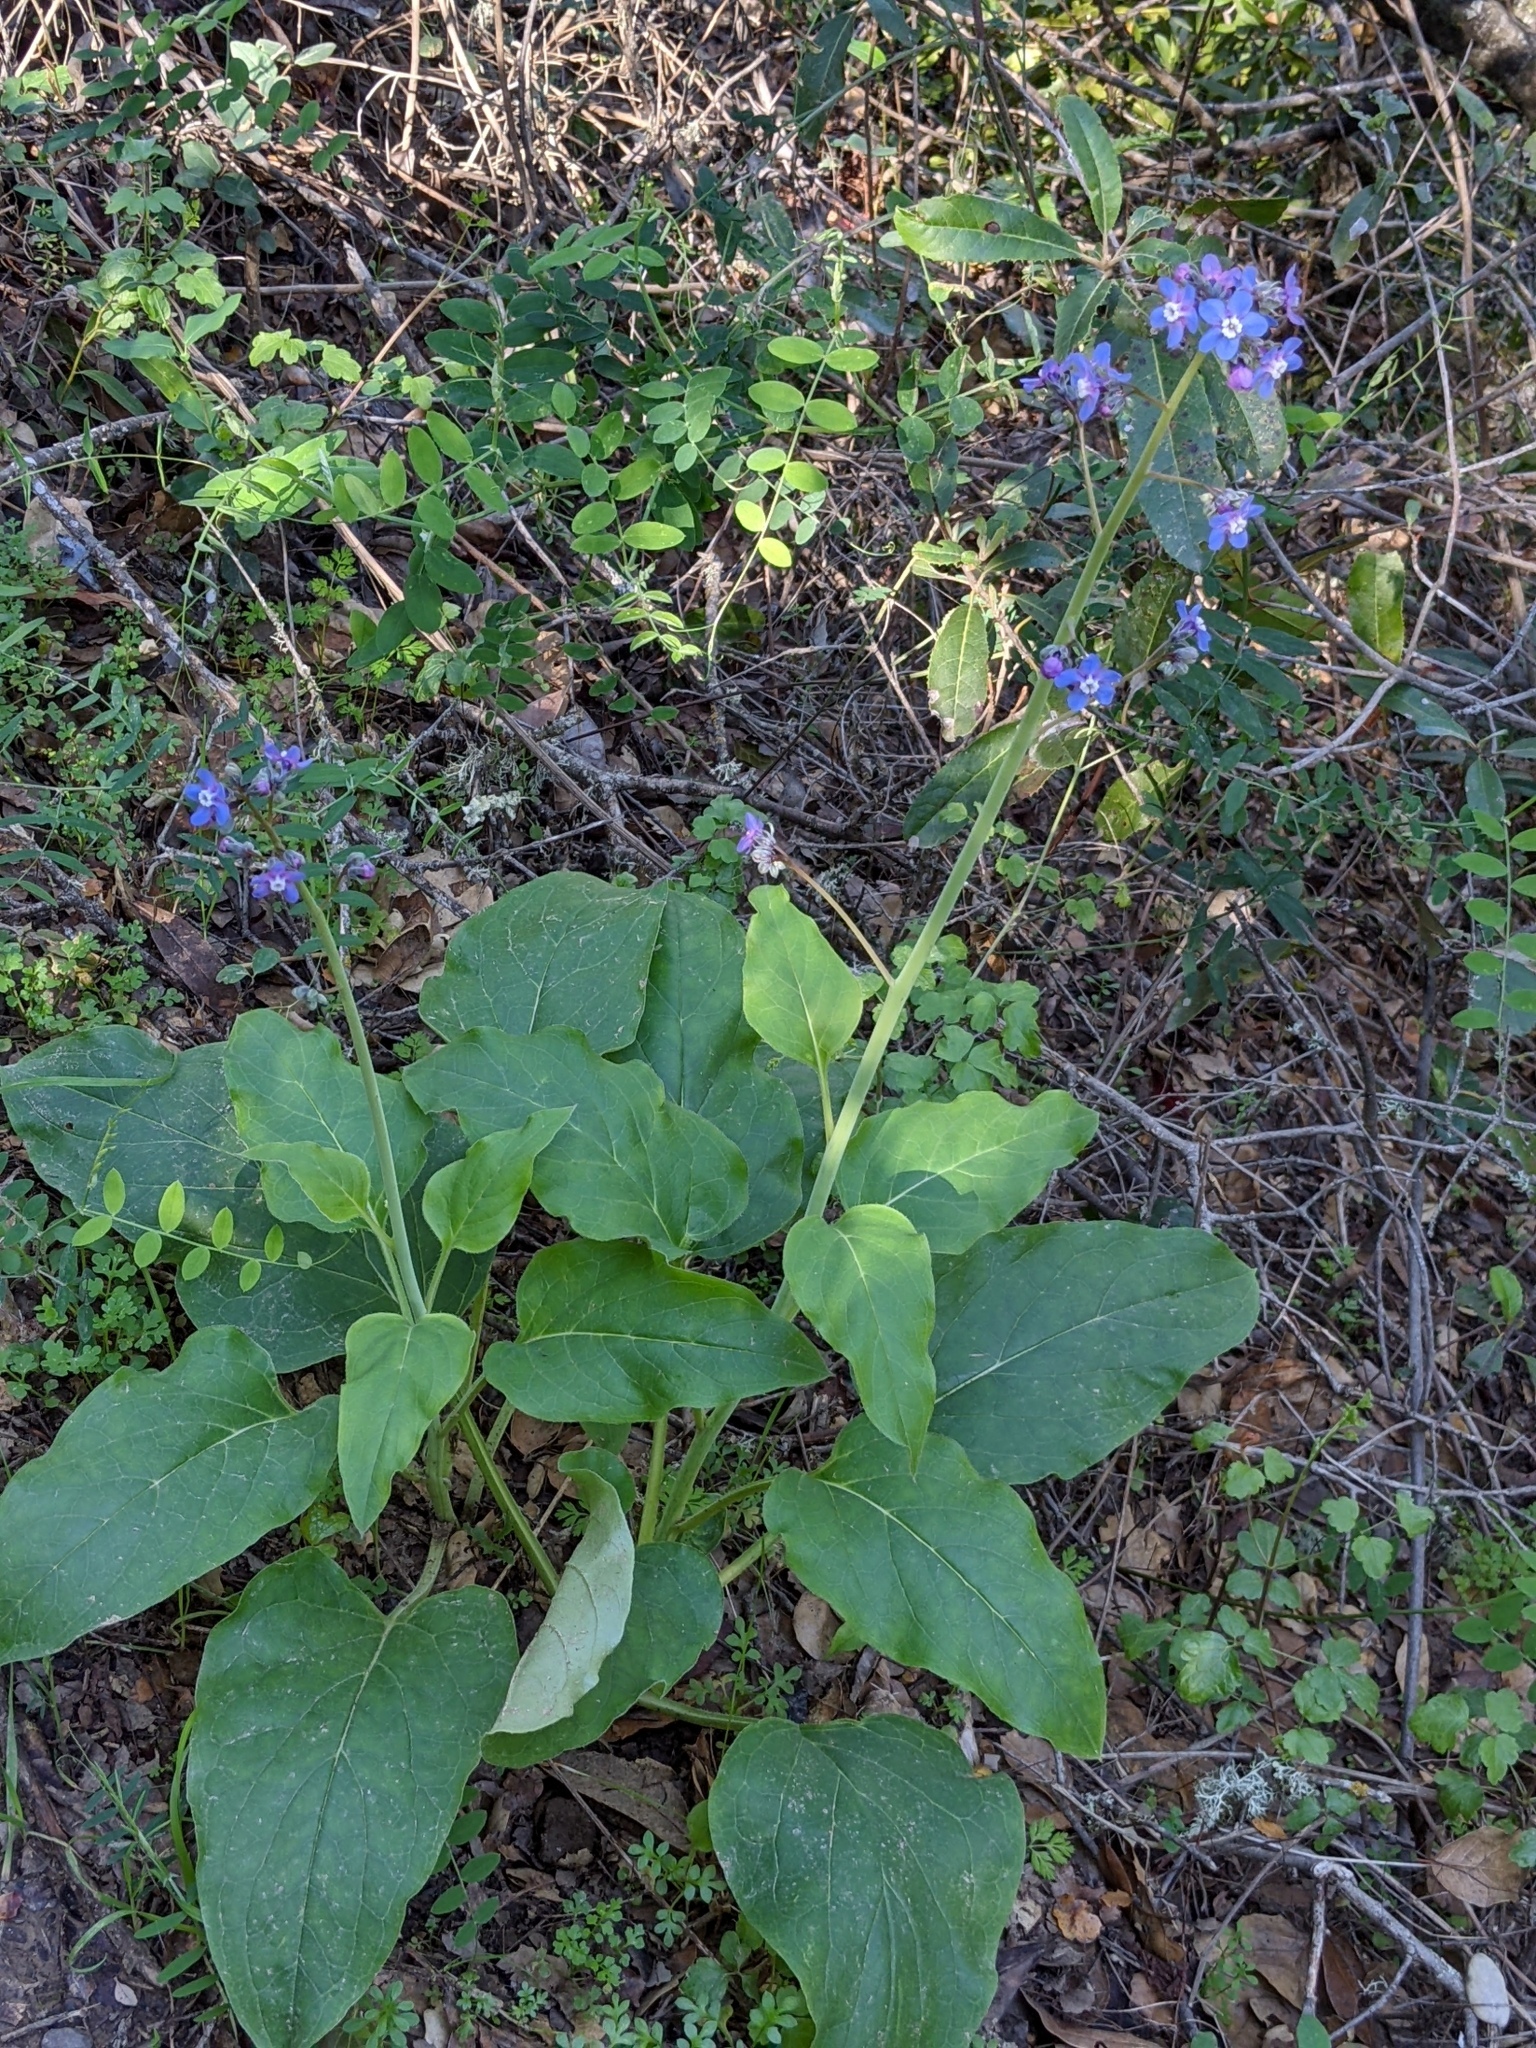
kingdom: Plantae
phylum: Tracheophyta
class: Magnoliopsida
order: Boraginales
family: Boraginaceae
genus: Adelinia
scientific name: Adelinia grande
